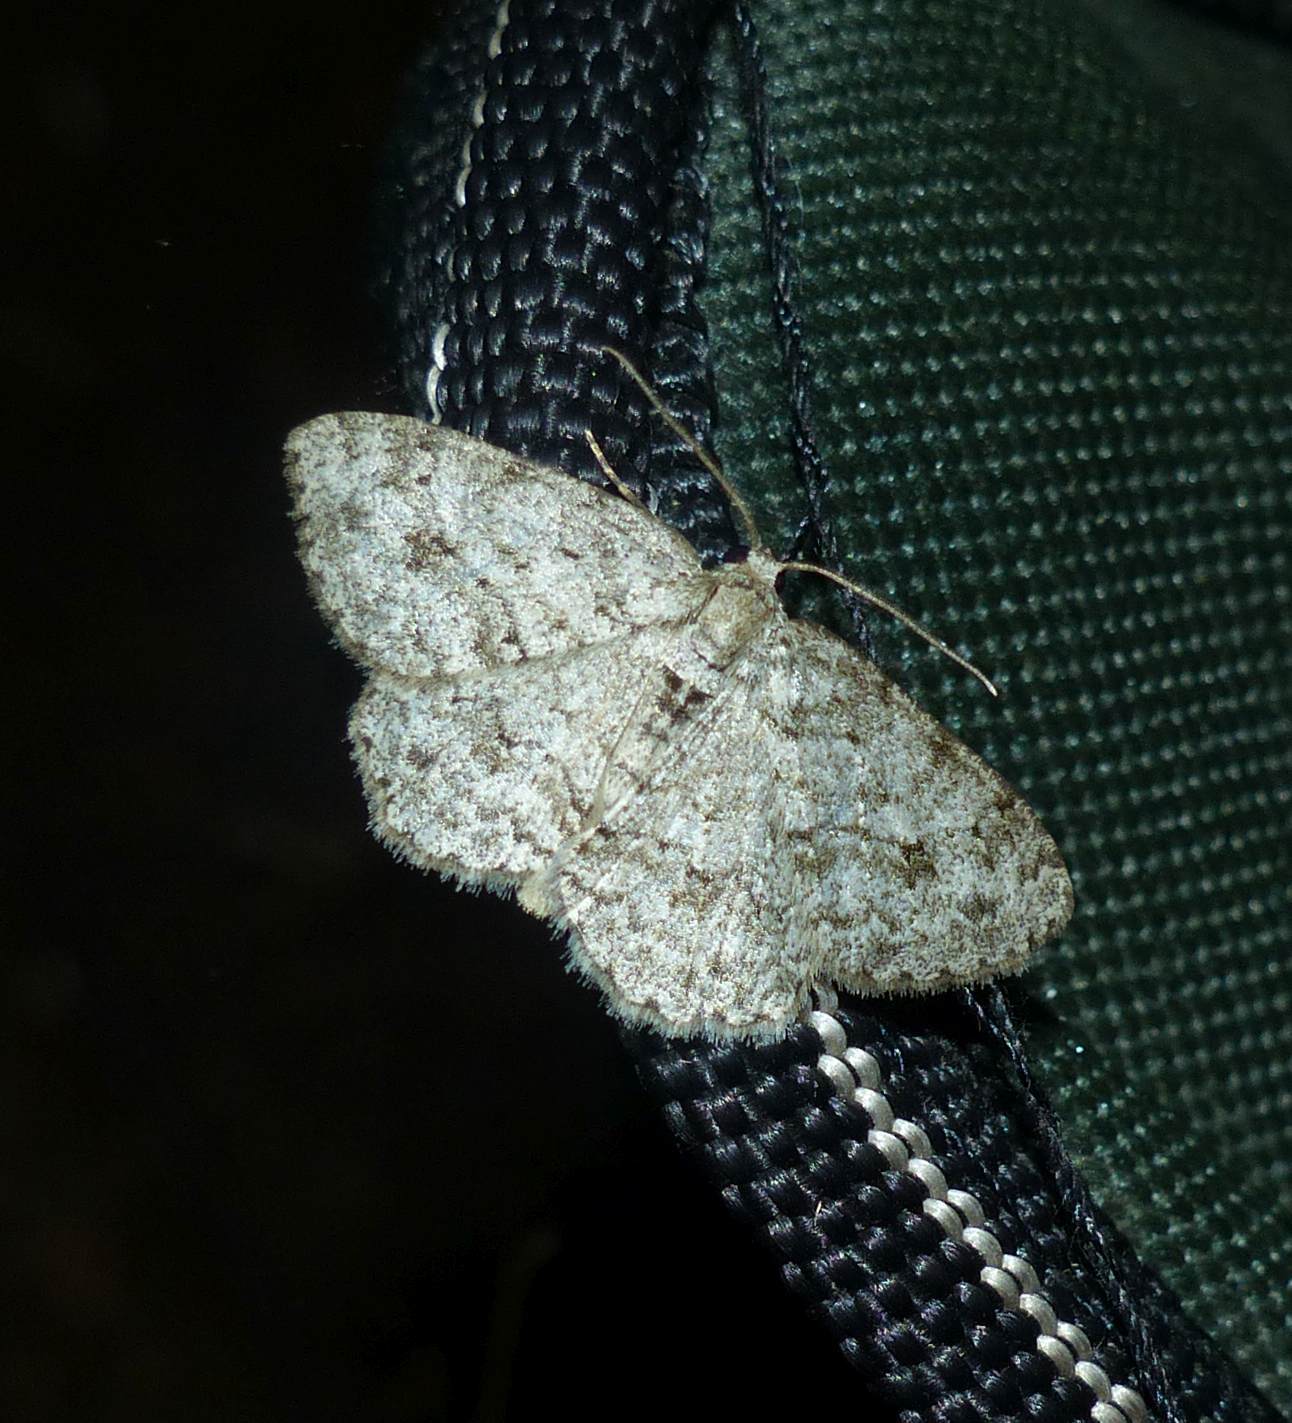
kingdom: Animalia
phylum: Arthropoda
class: Insecta
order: Lepidoptera
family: Geometridae
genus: Ectropis
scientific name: Ectropis crepuscularia
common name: Engrailed
